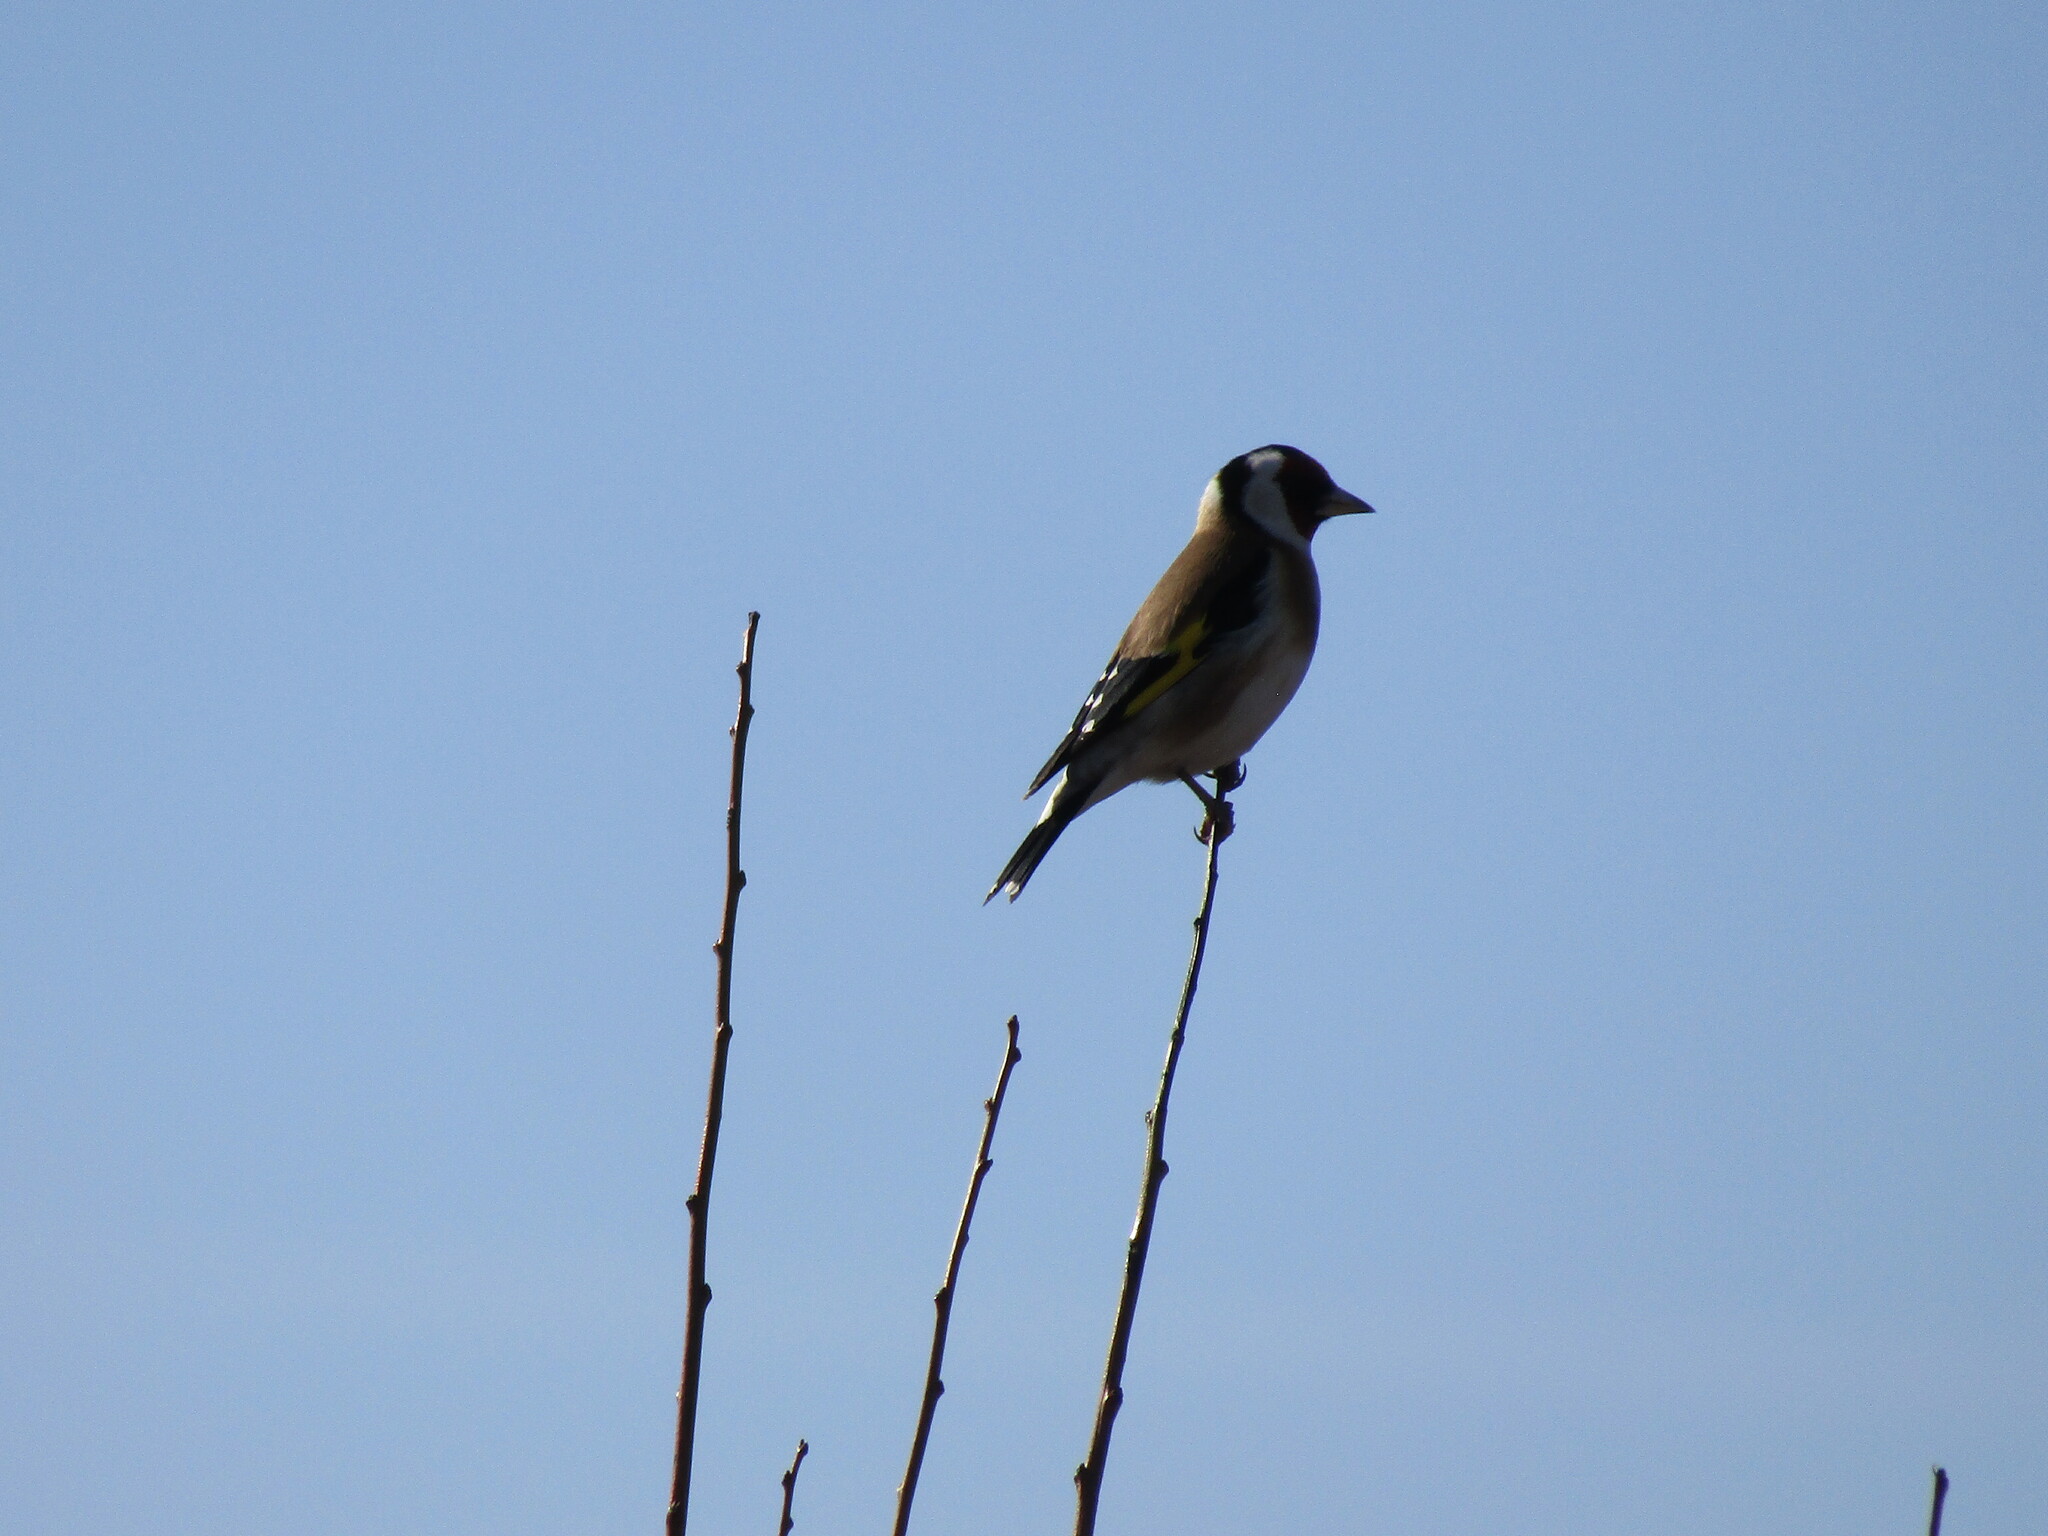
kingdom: Animalia
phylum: Chordata
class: Aves
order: Passeriformes
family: Fringillidae
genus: Carduelis
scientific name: Carduelis carduelis
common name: European goldfinch
